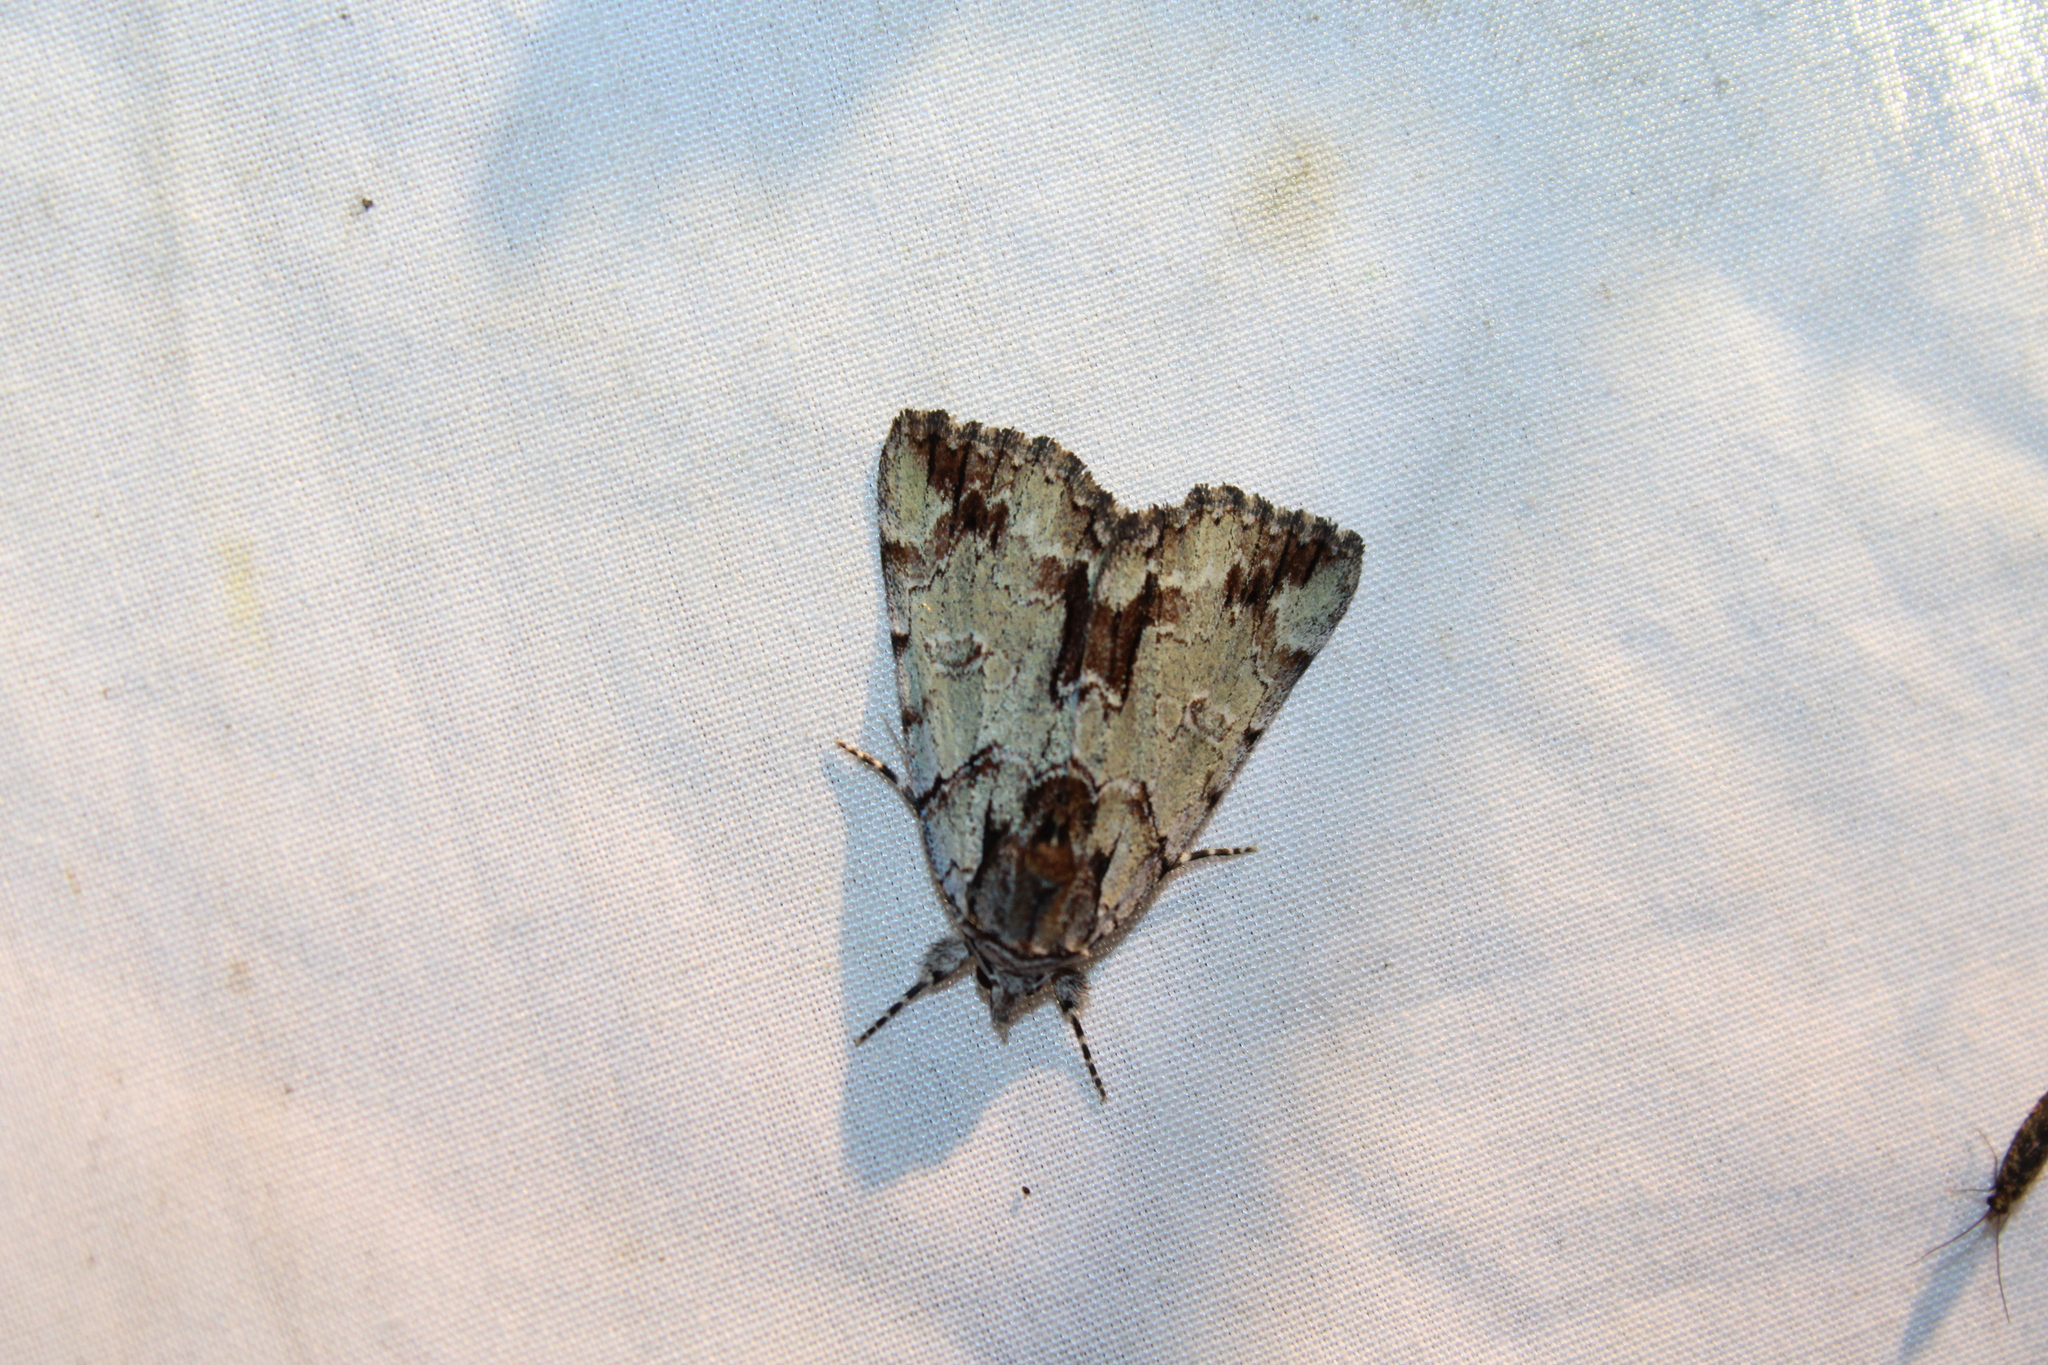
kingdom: Animalia
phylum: Arthropoda
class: Insecta
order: Lepidoptera
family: Erebidae
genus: Catocala
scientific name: Catocala praeclara
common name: Praeclara underwing
